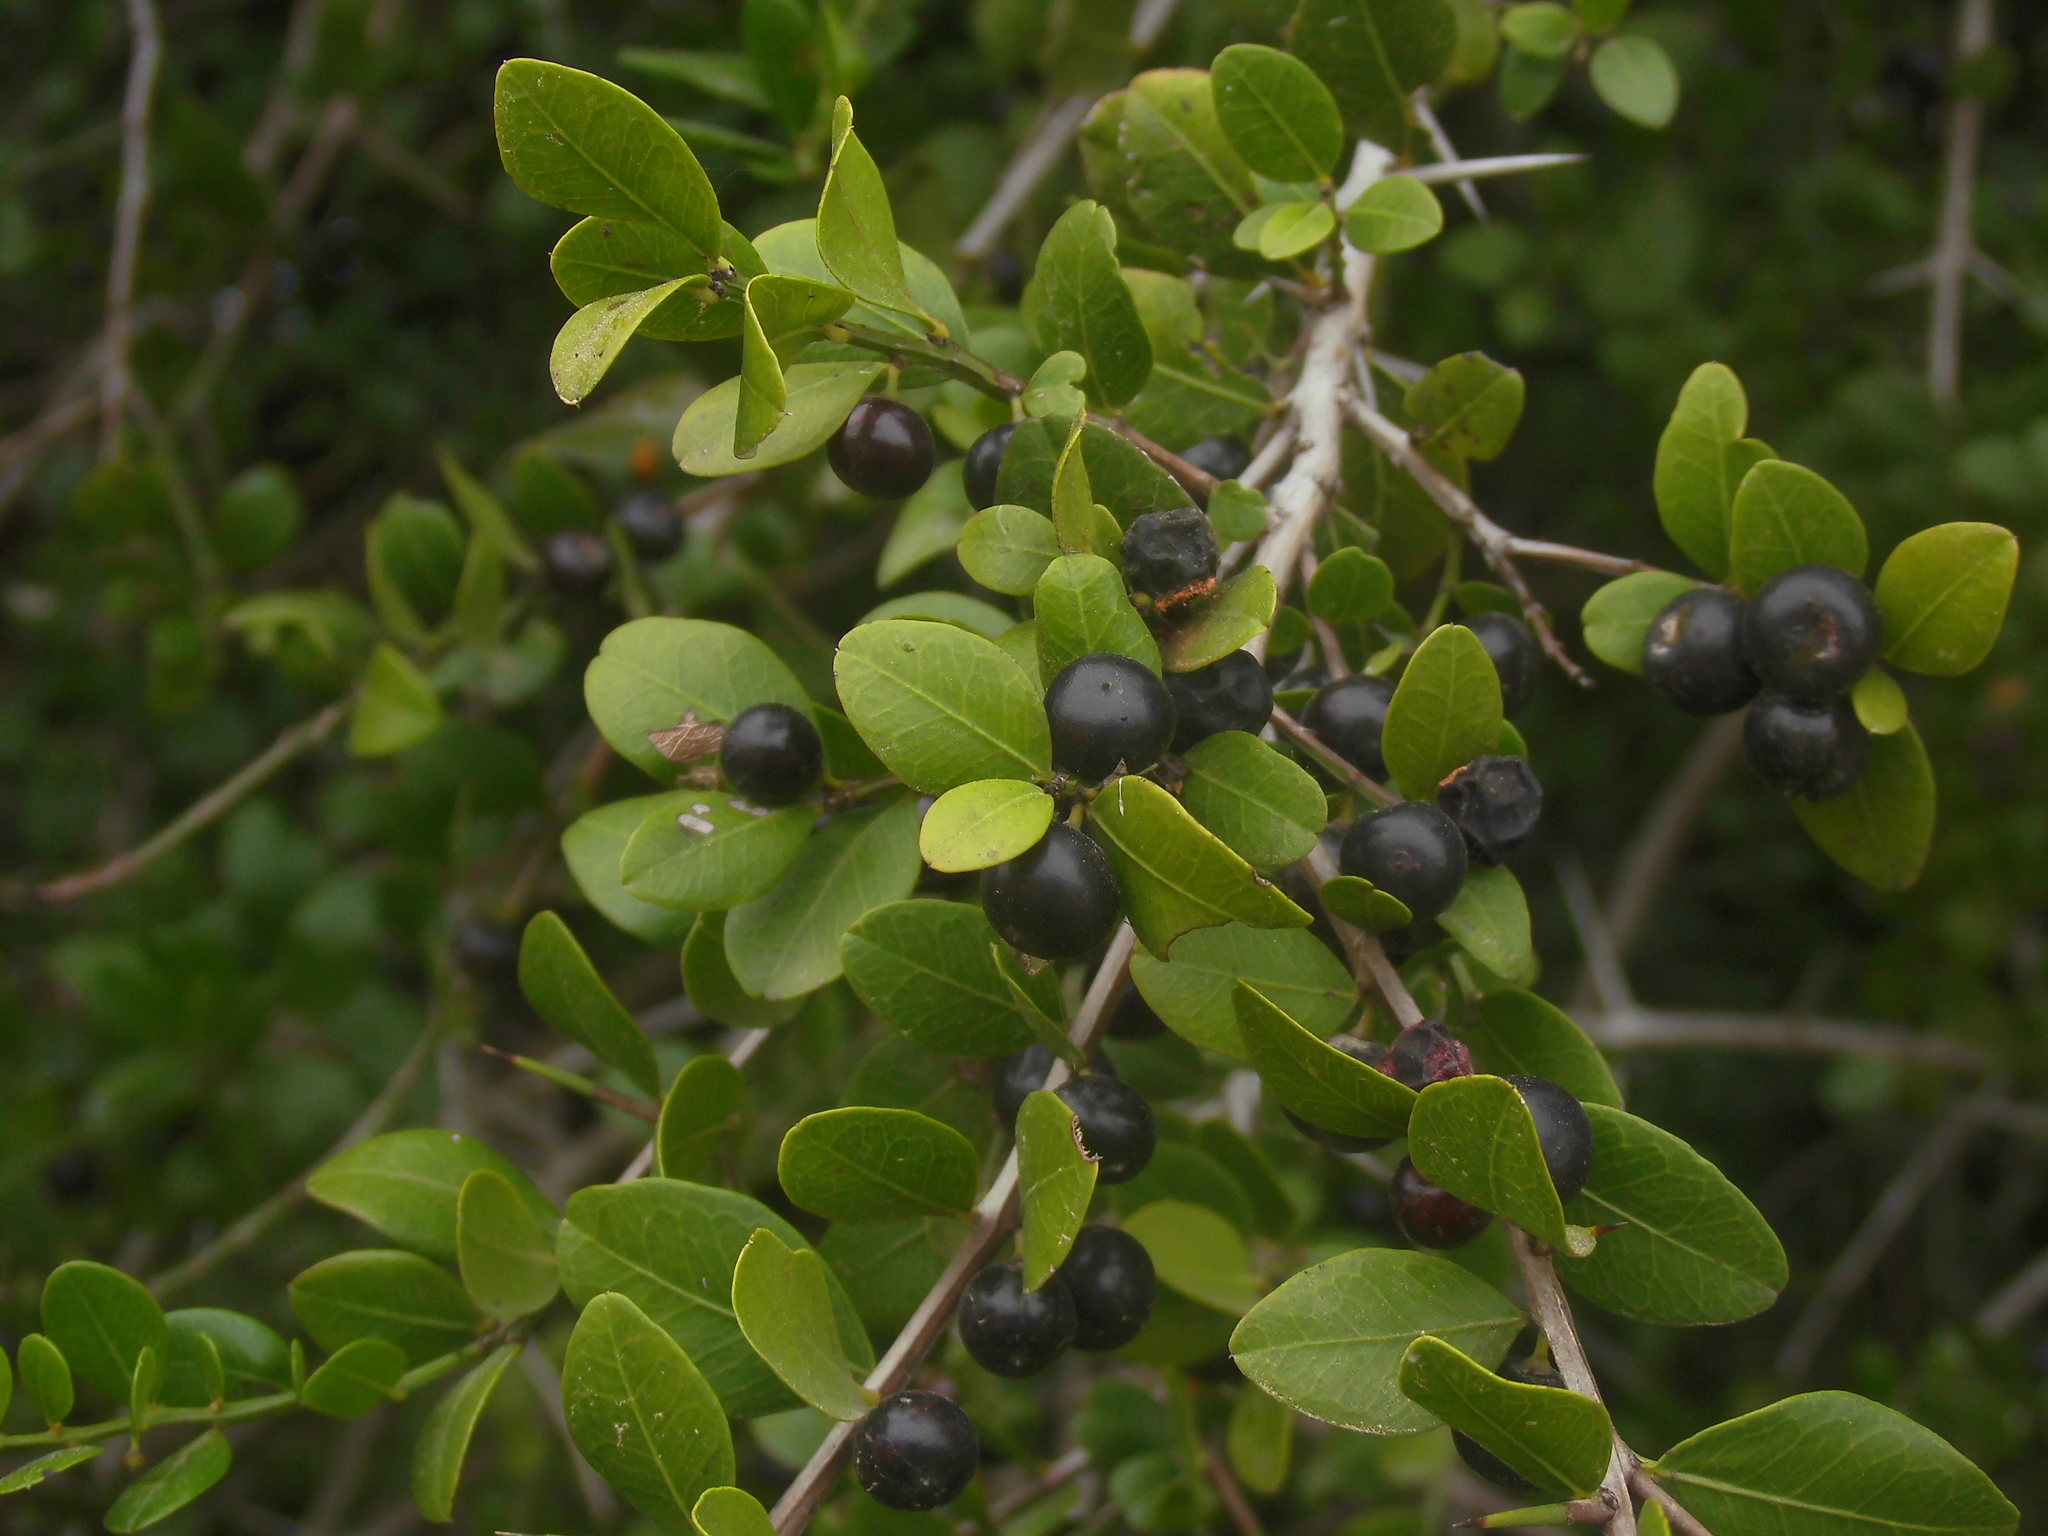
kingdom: Plantae
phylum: Tracheophyta
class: Magnoliopsida
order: Rosales
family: Rhamnaceae
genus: Scutia
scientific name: Scutia buxifolia
